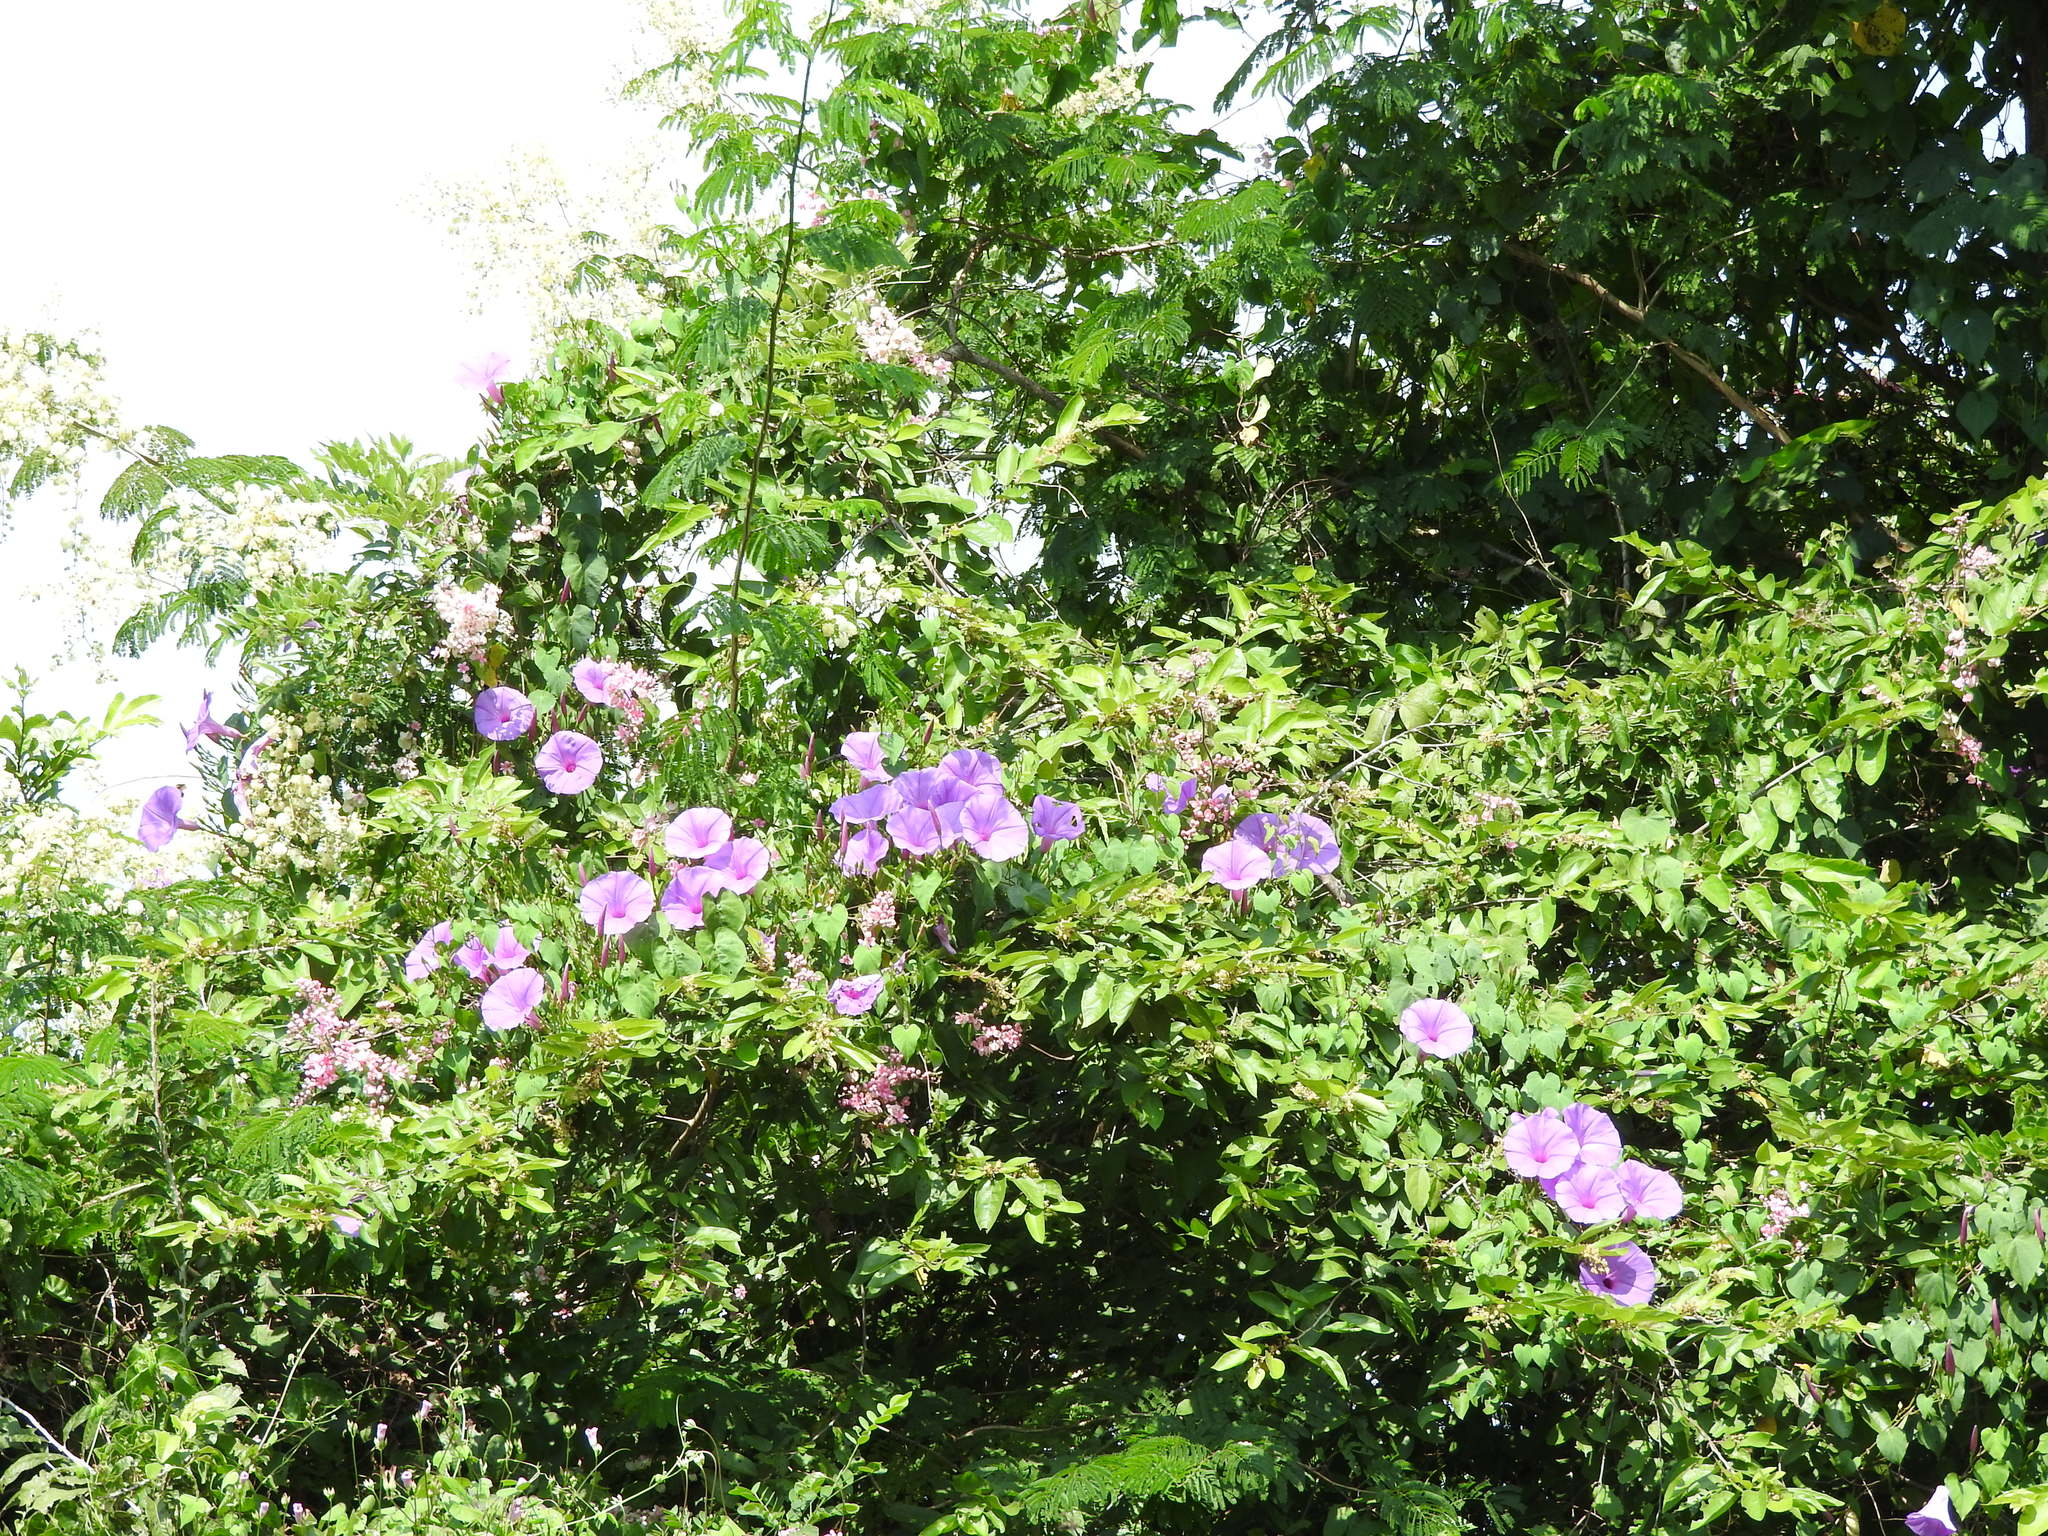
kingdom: Plantae
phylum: Tracheophyta
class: Magnoliopsida
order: Solanales
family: Convolvulaceae
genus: Ipomoea
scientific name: Ipomoea pedicellaris
